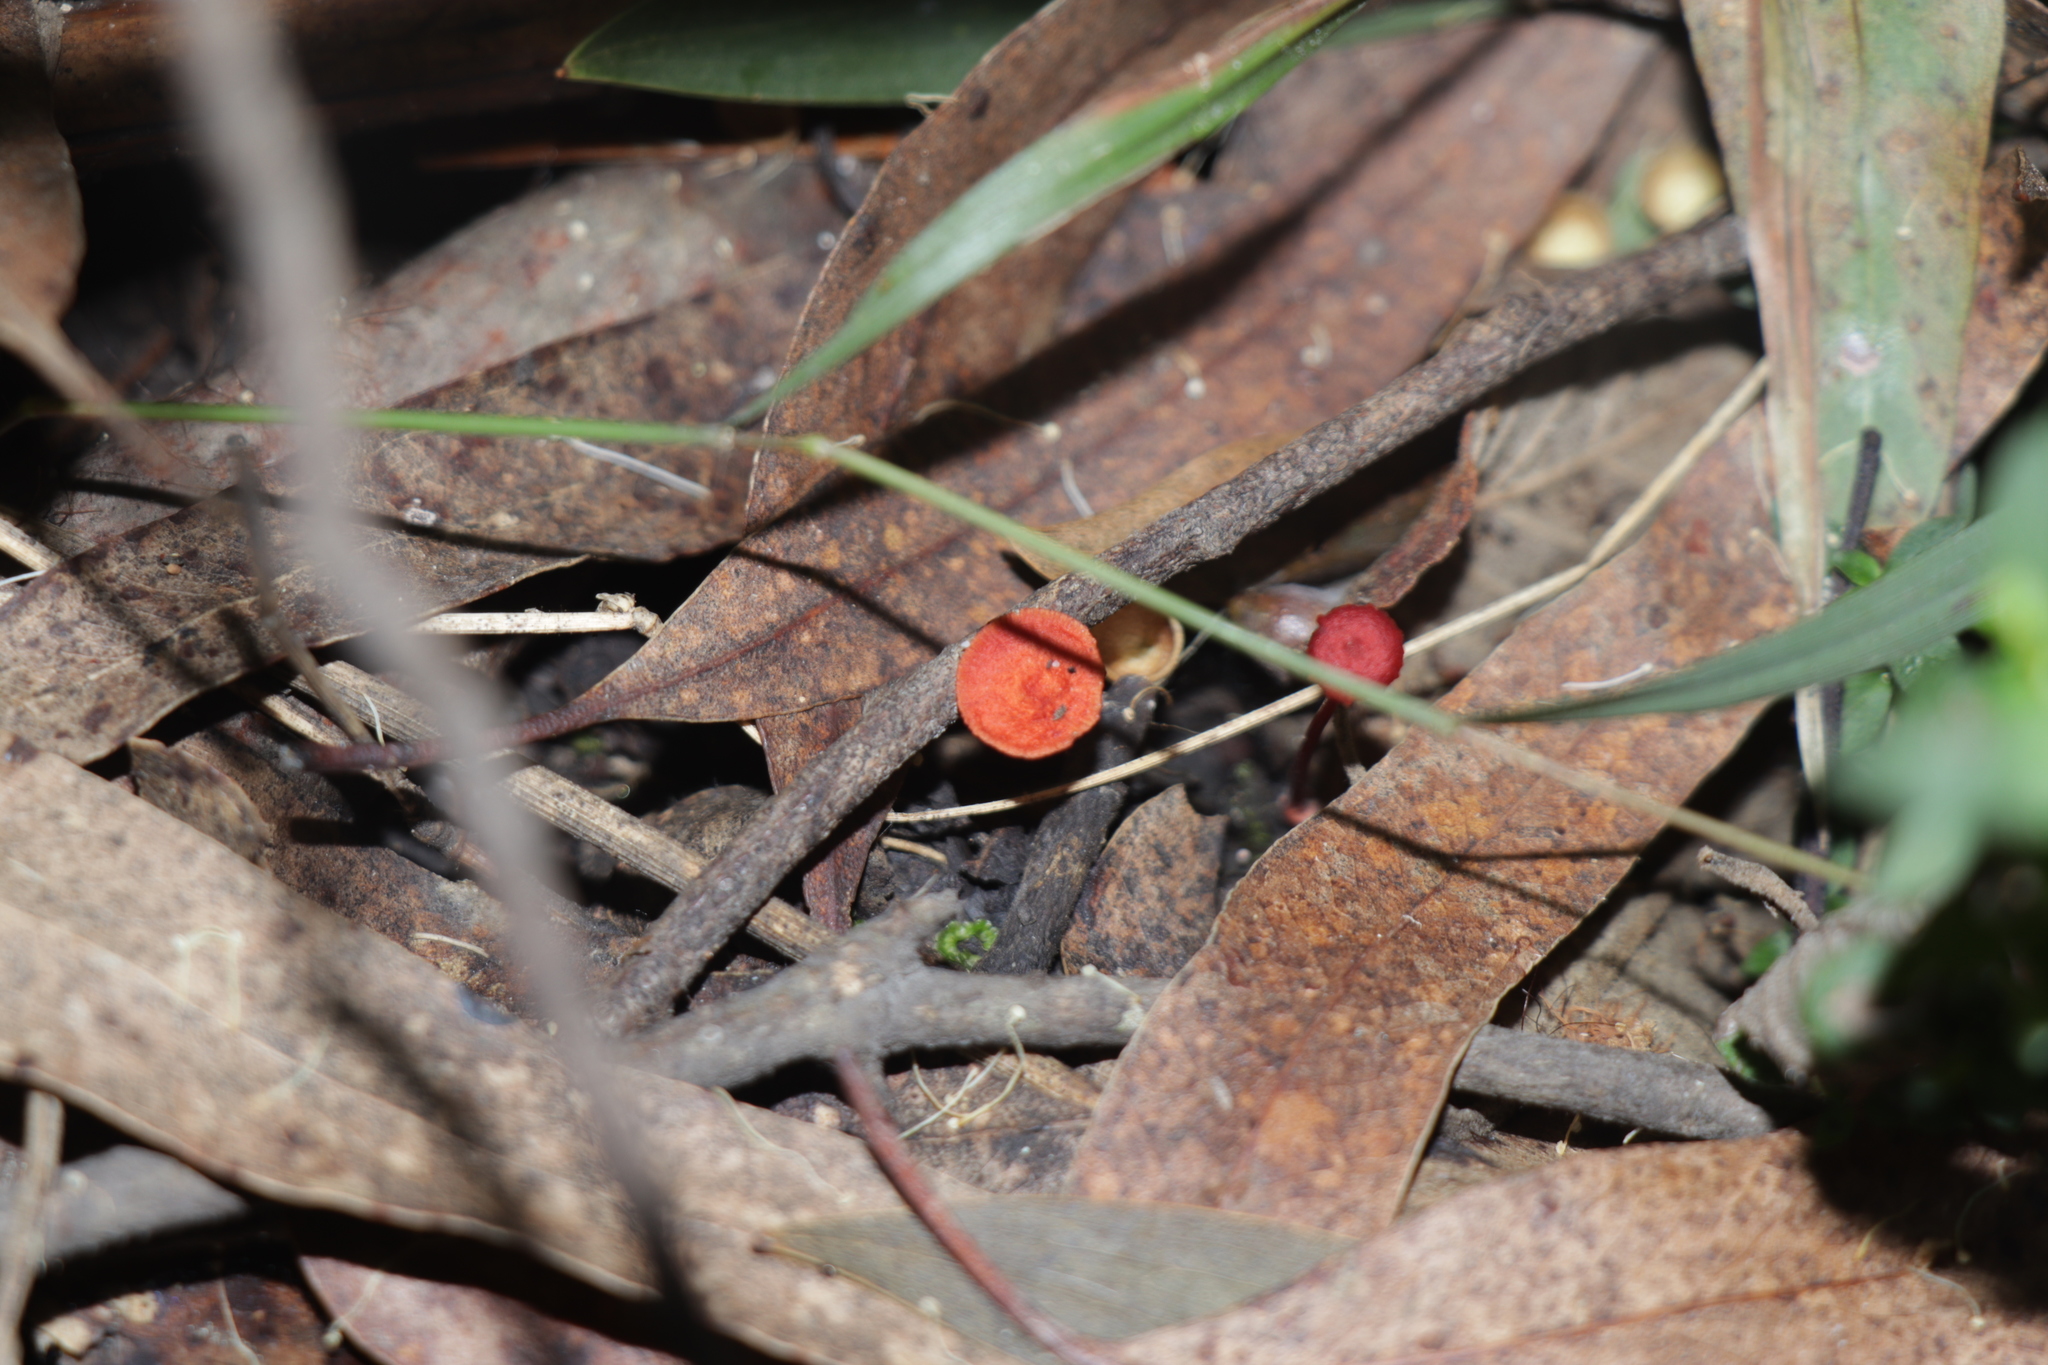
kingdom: Fungi
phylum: Basidiomycota
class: Agaricomycetes
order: Agaricales
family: Mycenaceae
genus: Cruentomycena
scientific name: Cruentomycena viscidocruenta
